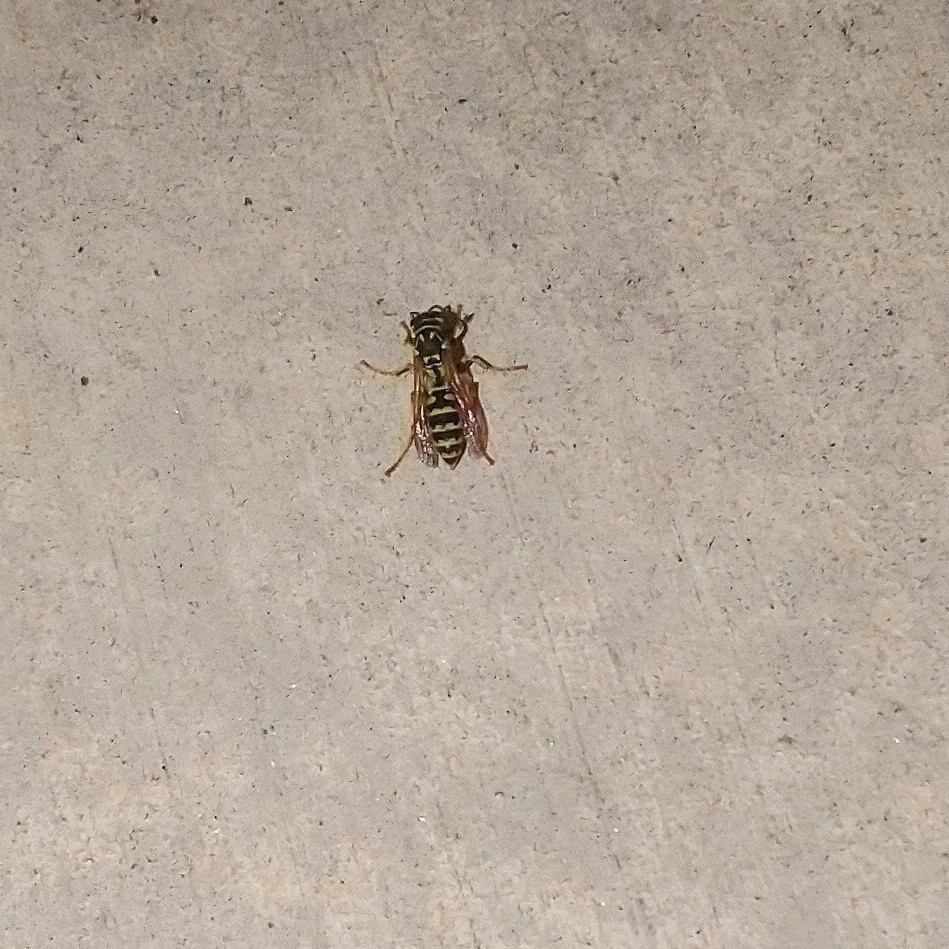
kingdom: Animalia
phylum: Arthropoda
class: Insecta
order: Hymenoptera
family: Eumenidae
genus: Polistes
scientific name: Polistes dominula
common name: Paper wasp
